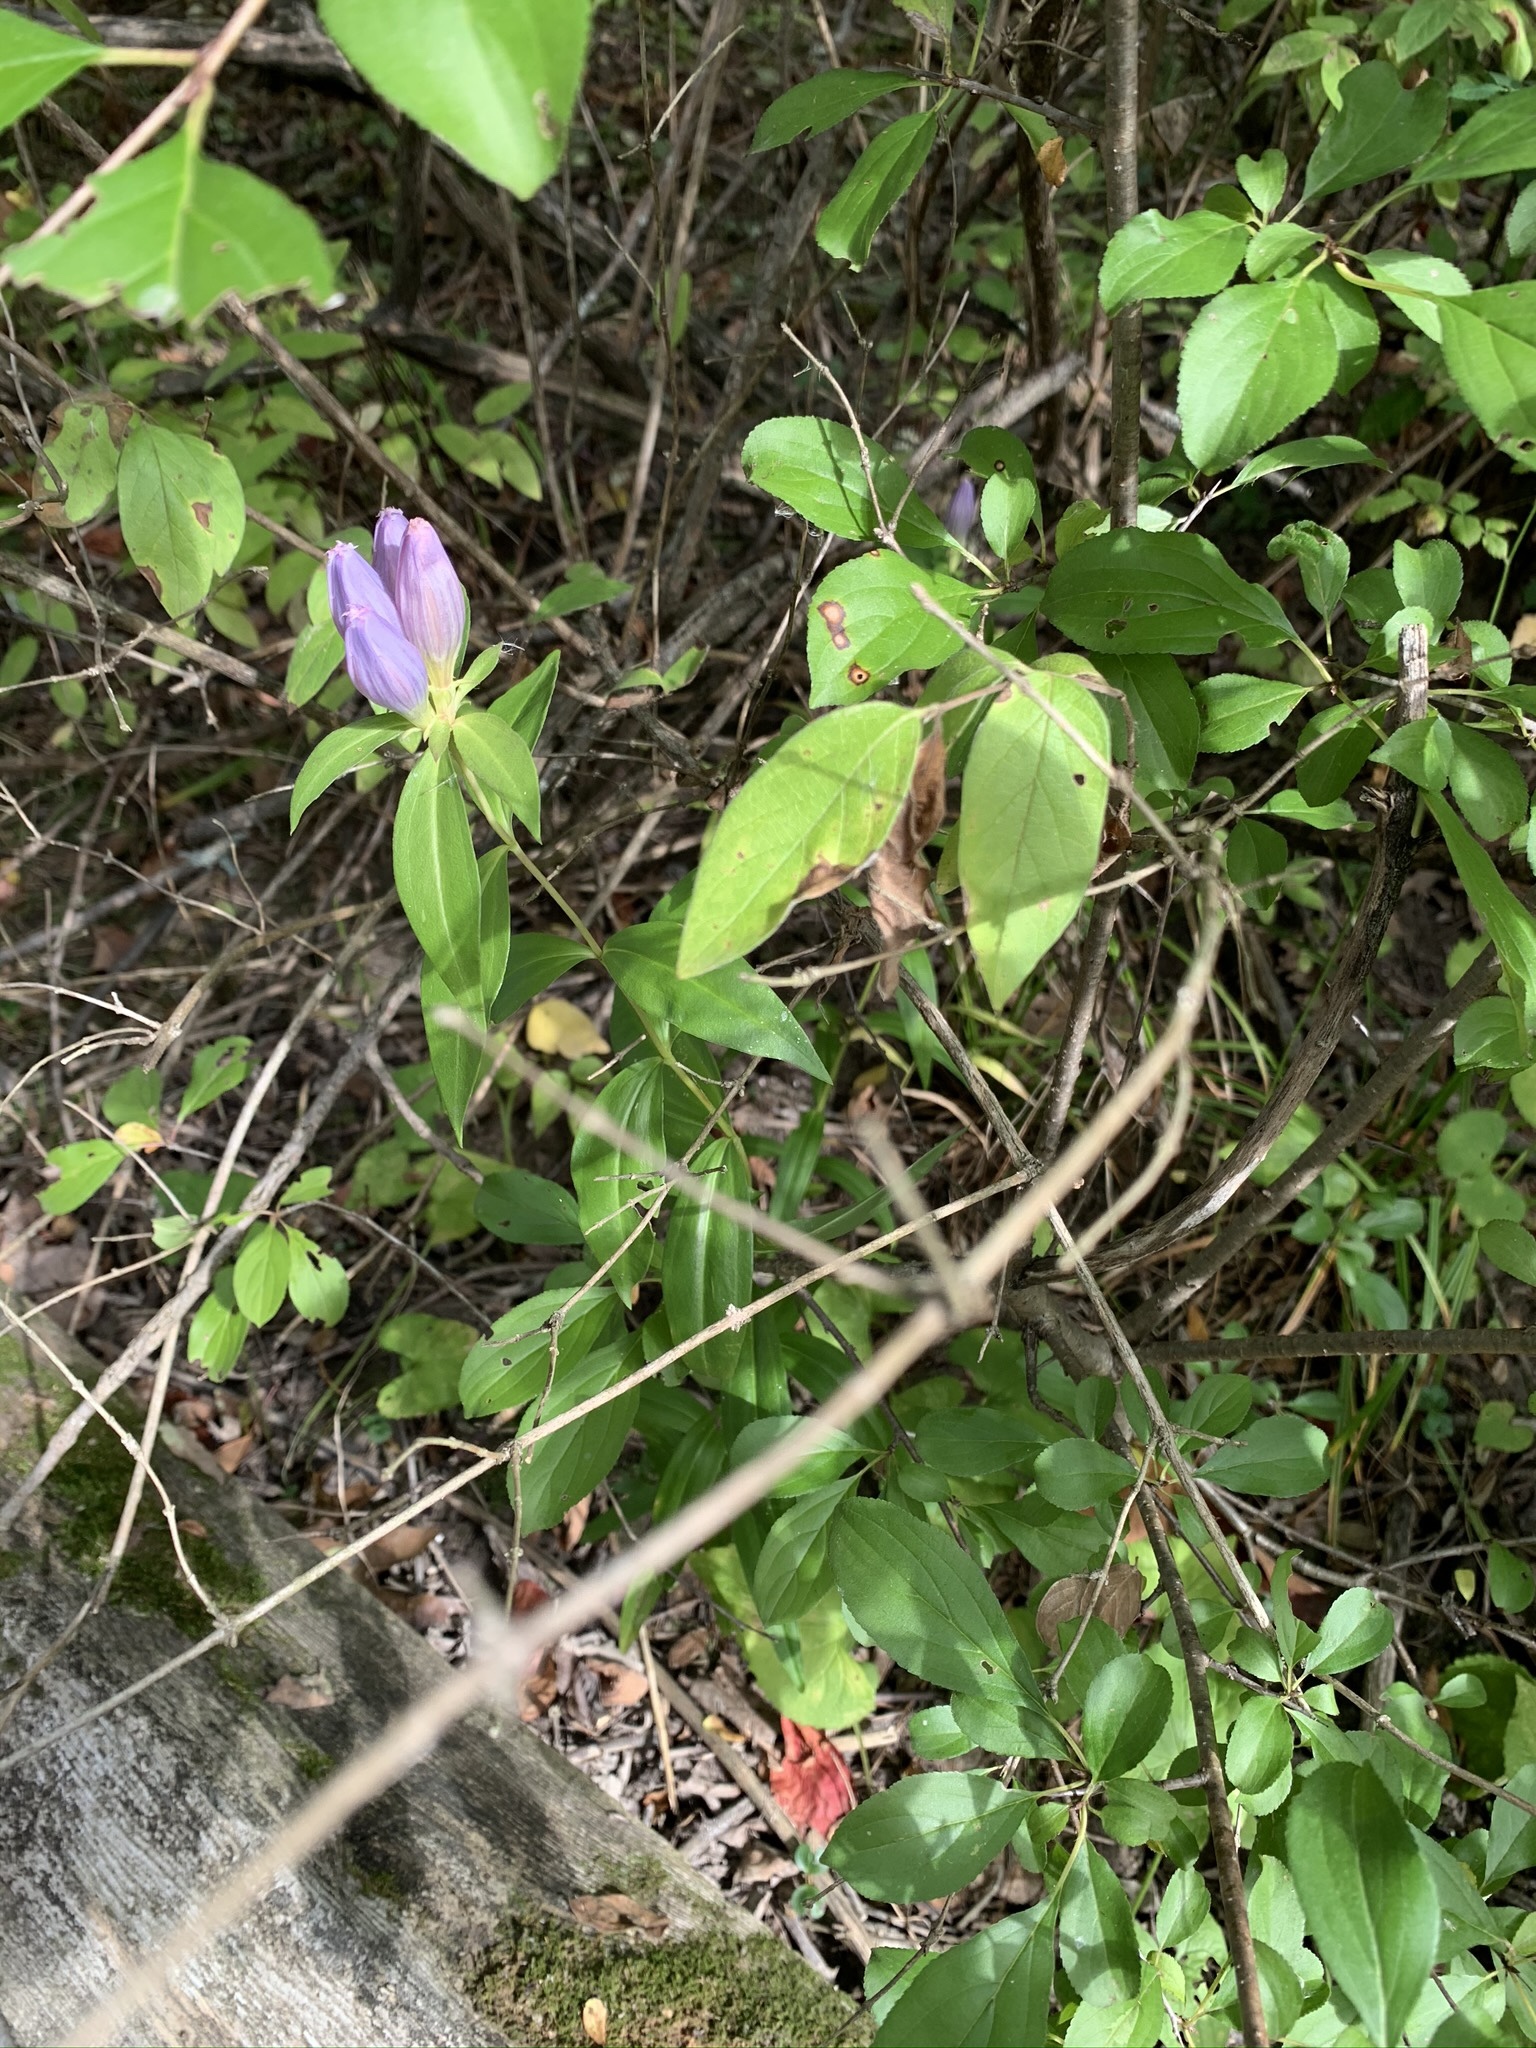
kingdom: Plantae
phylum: Tracheophyta
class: Magnoliopsida
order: Gentianales
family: Gentianaceae
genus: Gentiana
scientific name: Gentiana andrewsii
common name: Bottle gentian
